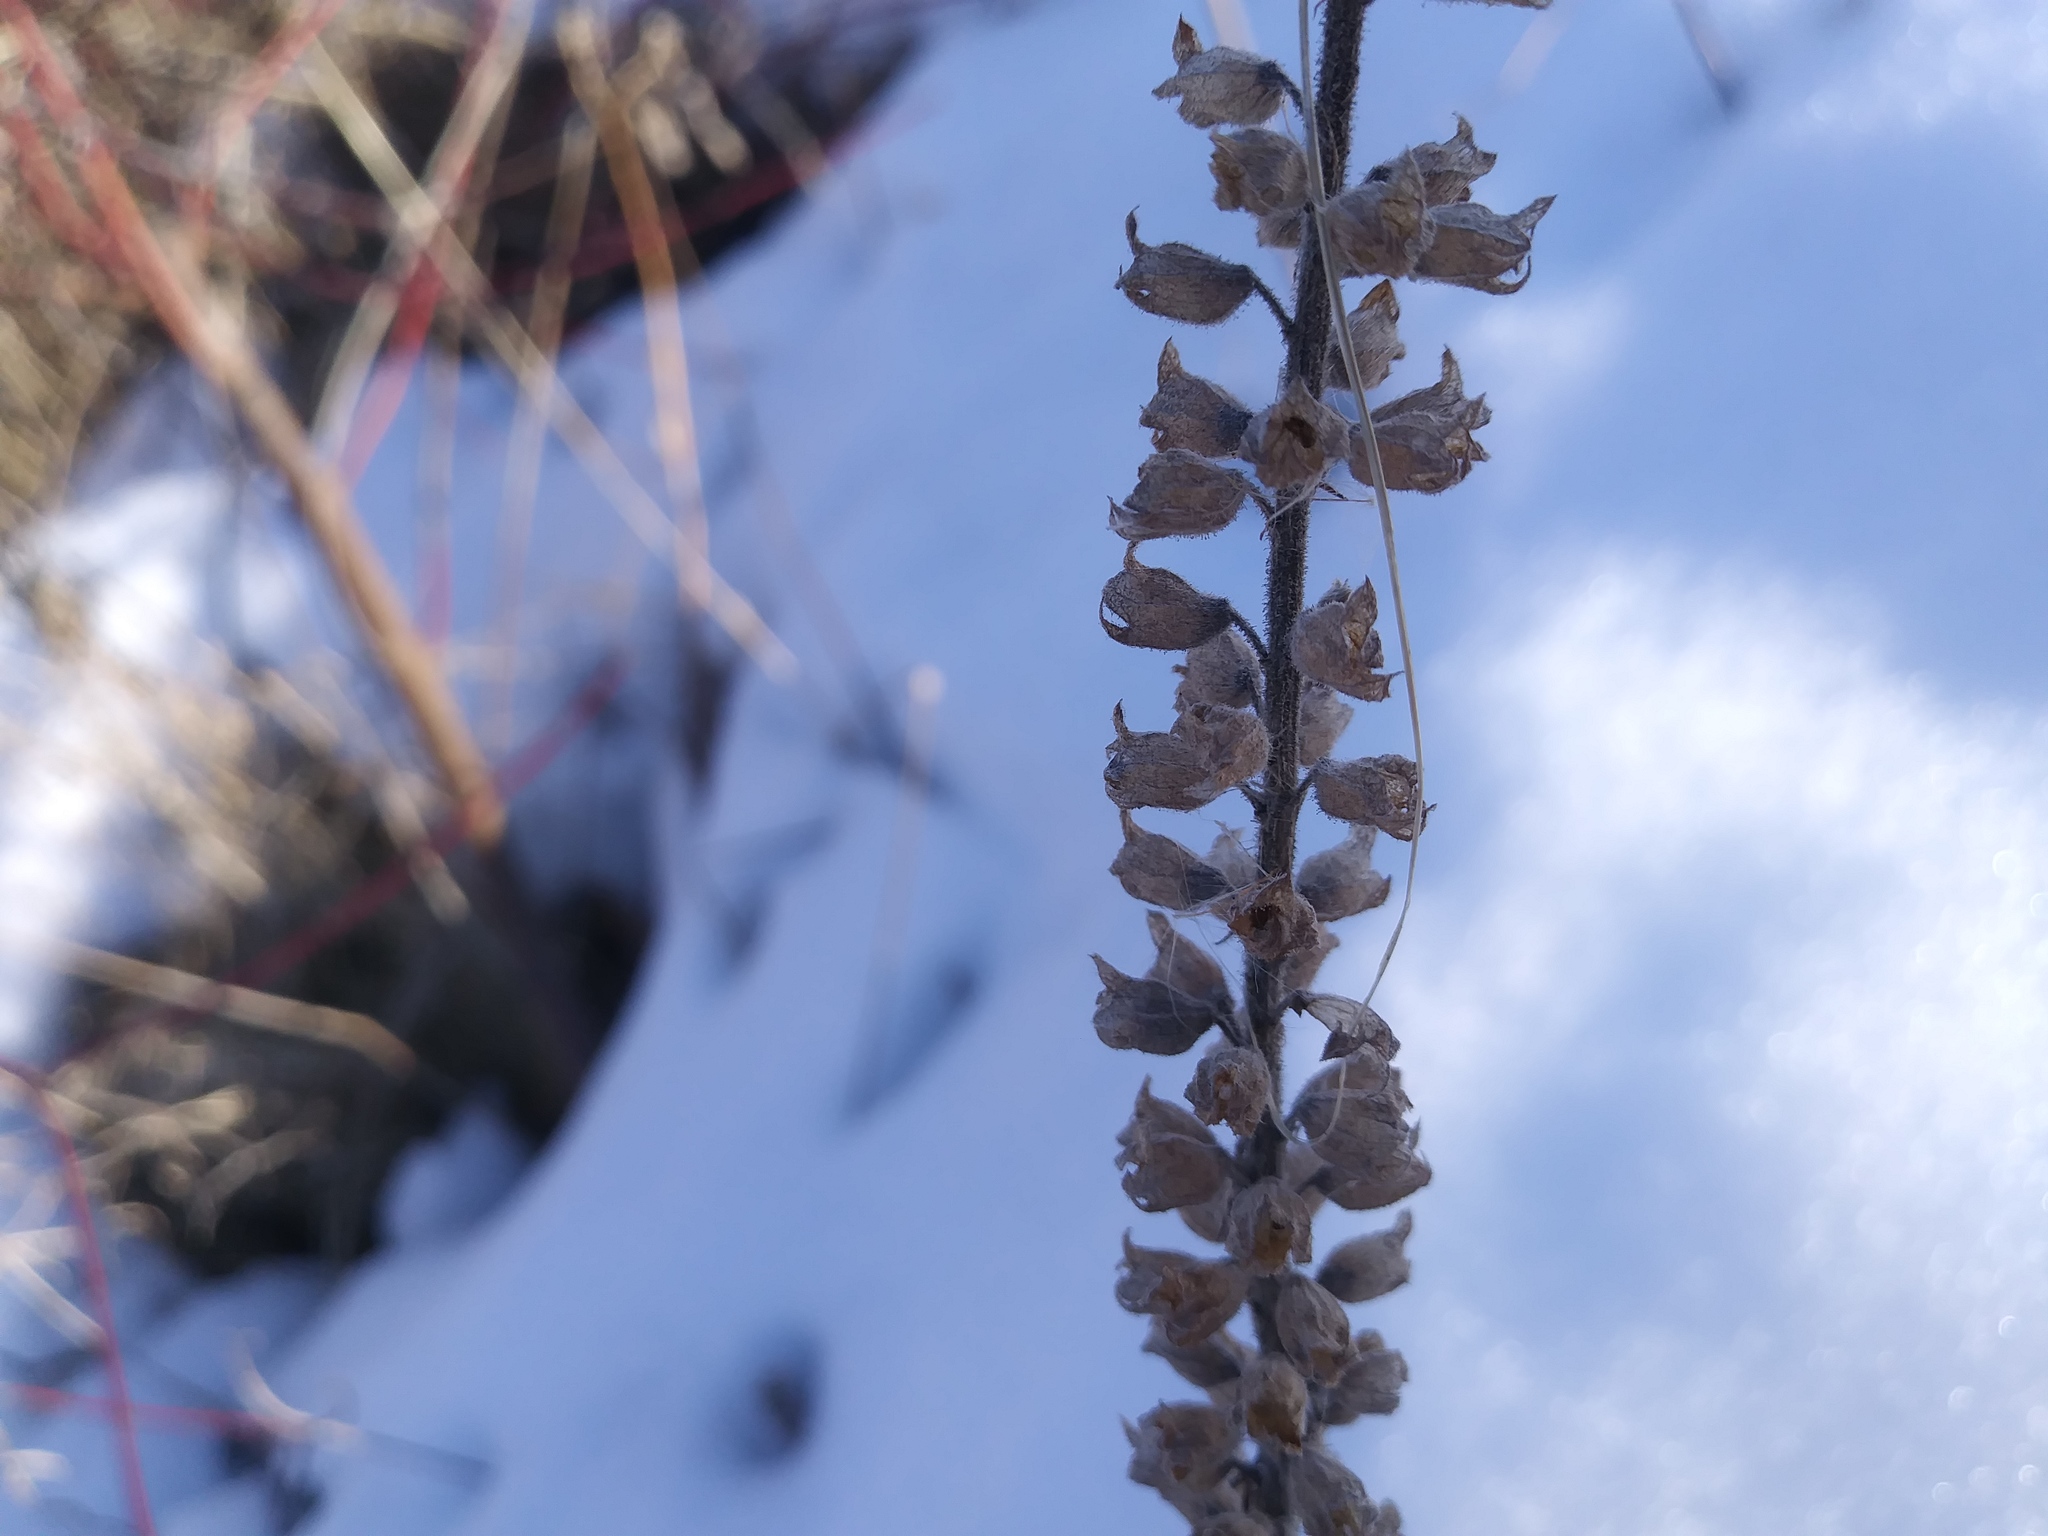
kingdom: Plantae
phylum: Tracheophyta
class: Magnoliopsida
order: Lamiales
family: Lamiaceae
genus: Teucrium
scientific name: Teucrium canadense
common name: American germander
